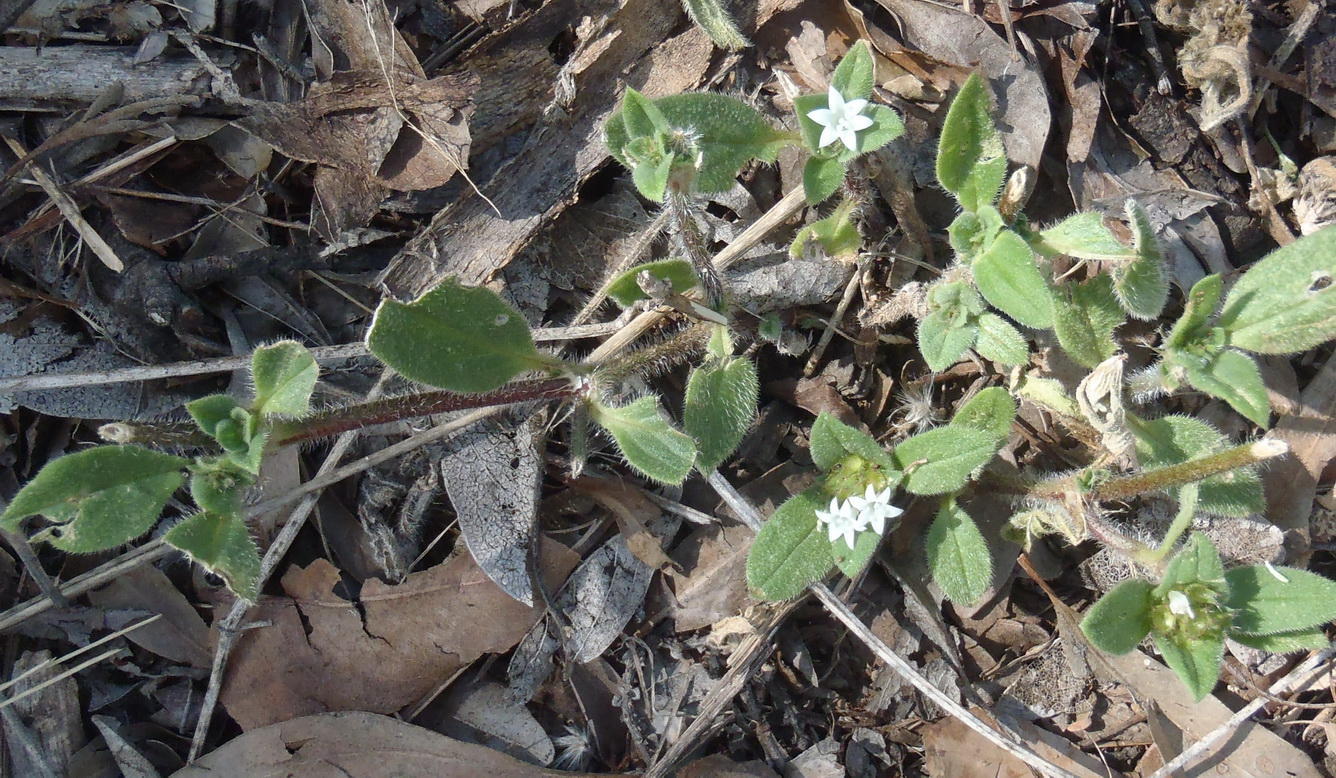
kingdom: Plantae
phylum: Tracheophyta
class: Magnoliopsida
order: Gentianales
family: Rubiaceae
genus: Richardia
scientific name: Richardia brasiliensis
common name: Tropical mexican clover
